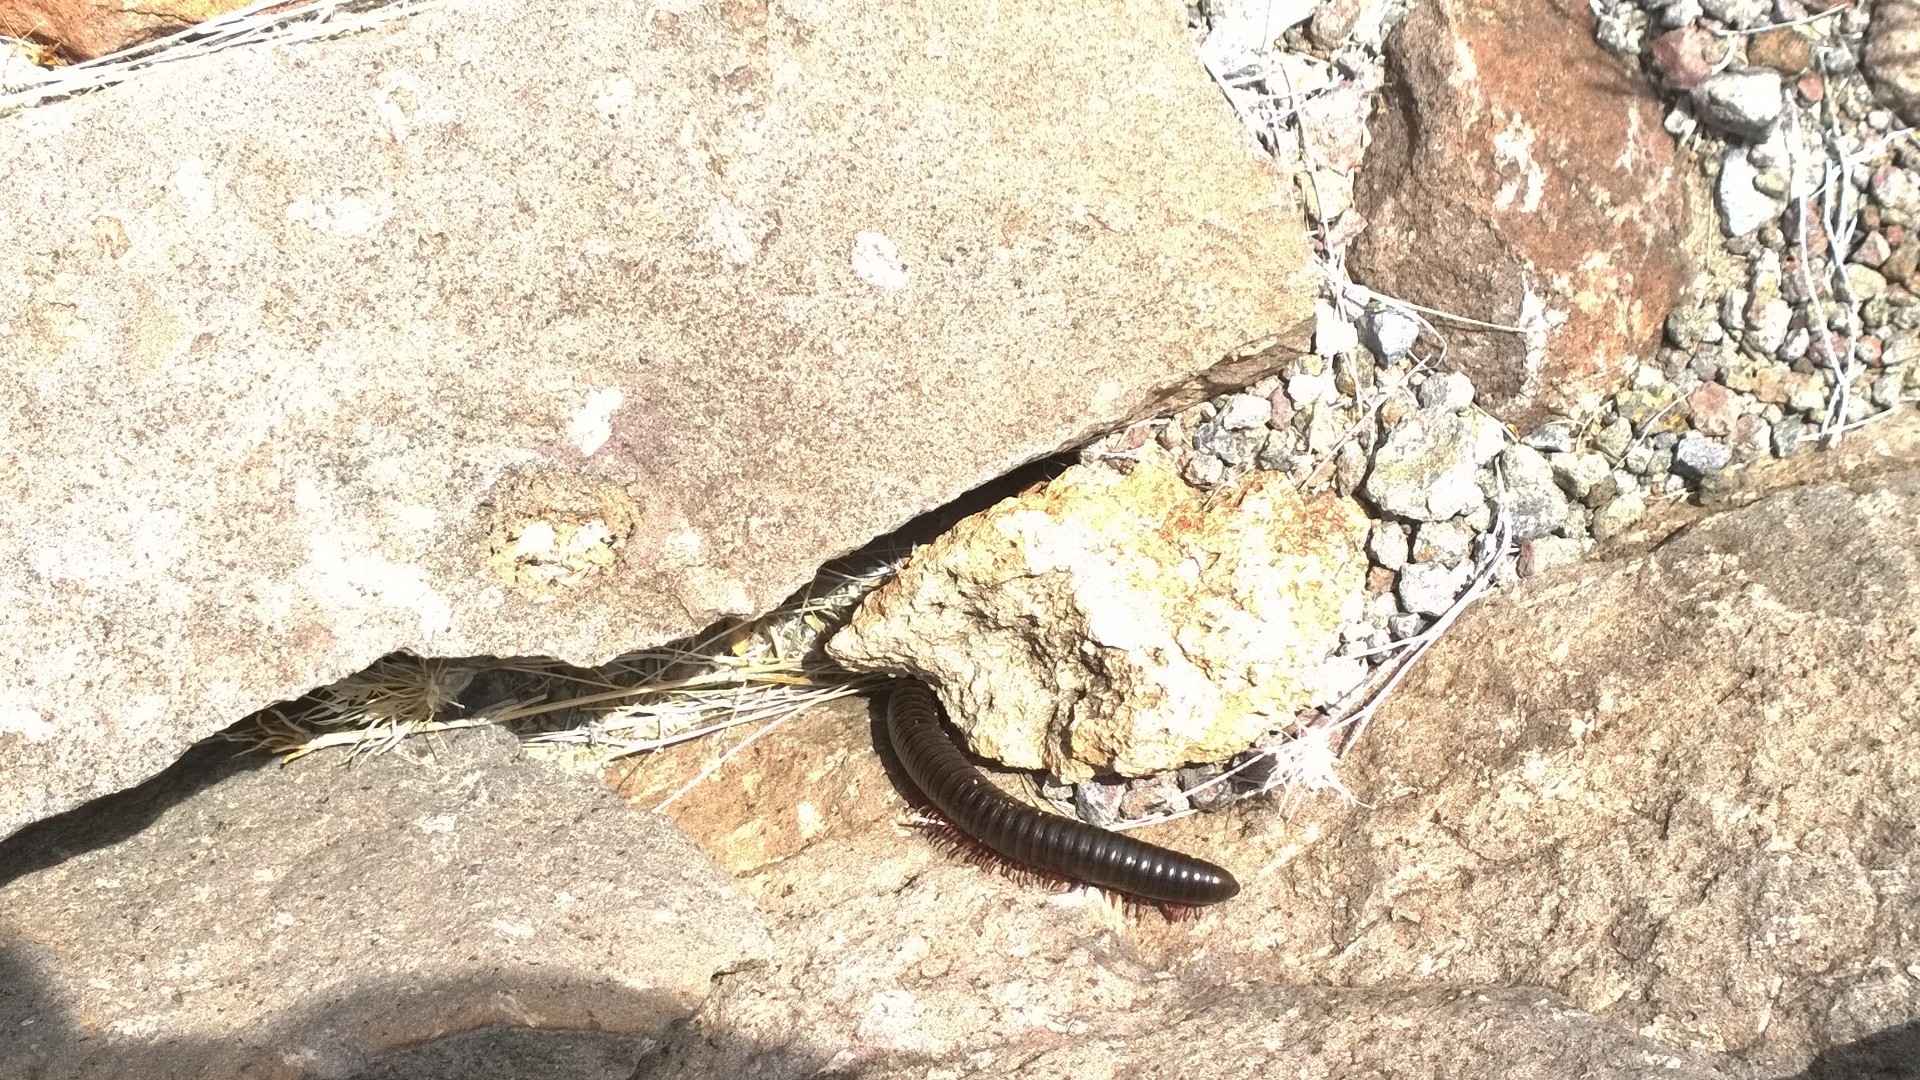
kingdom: Animalia
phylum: Arthropoda
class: Diplopoda
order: Spirostreptida
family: Spirostreptidae
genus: Orthoporus
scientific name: Orthoporus ornatus
